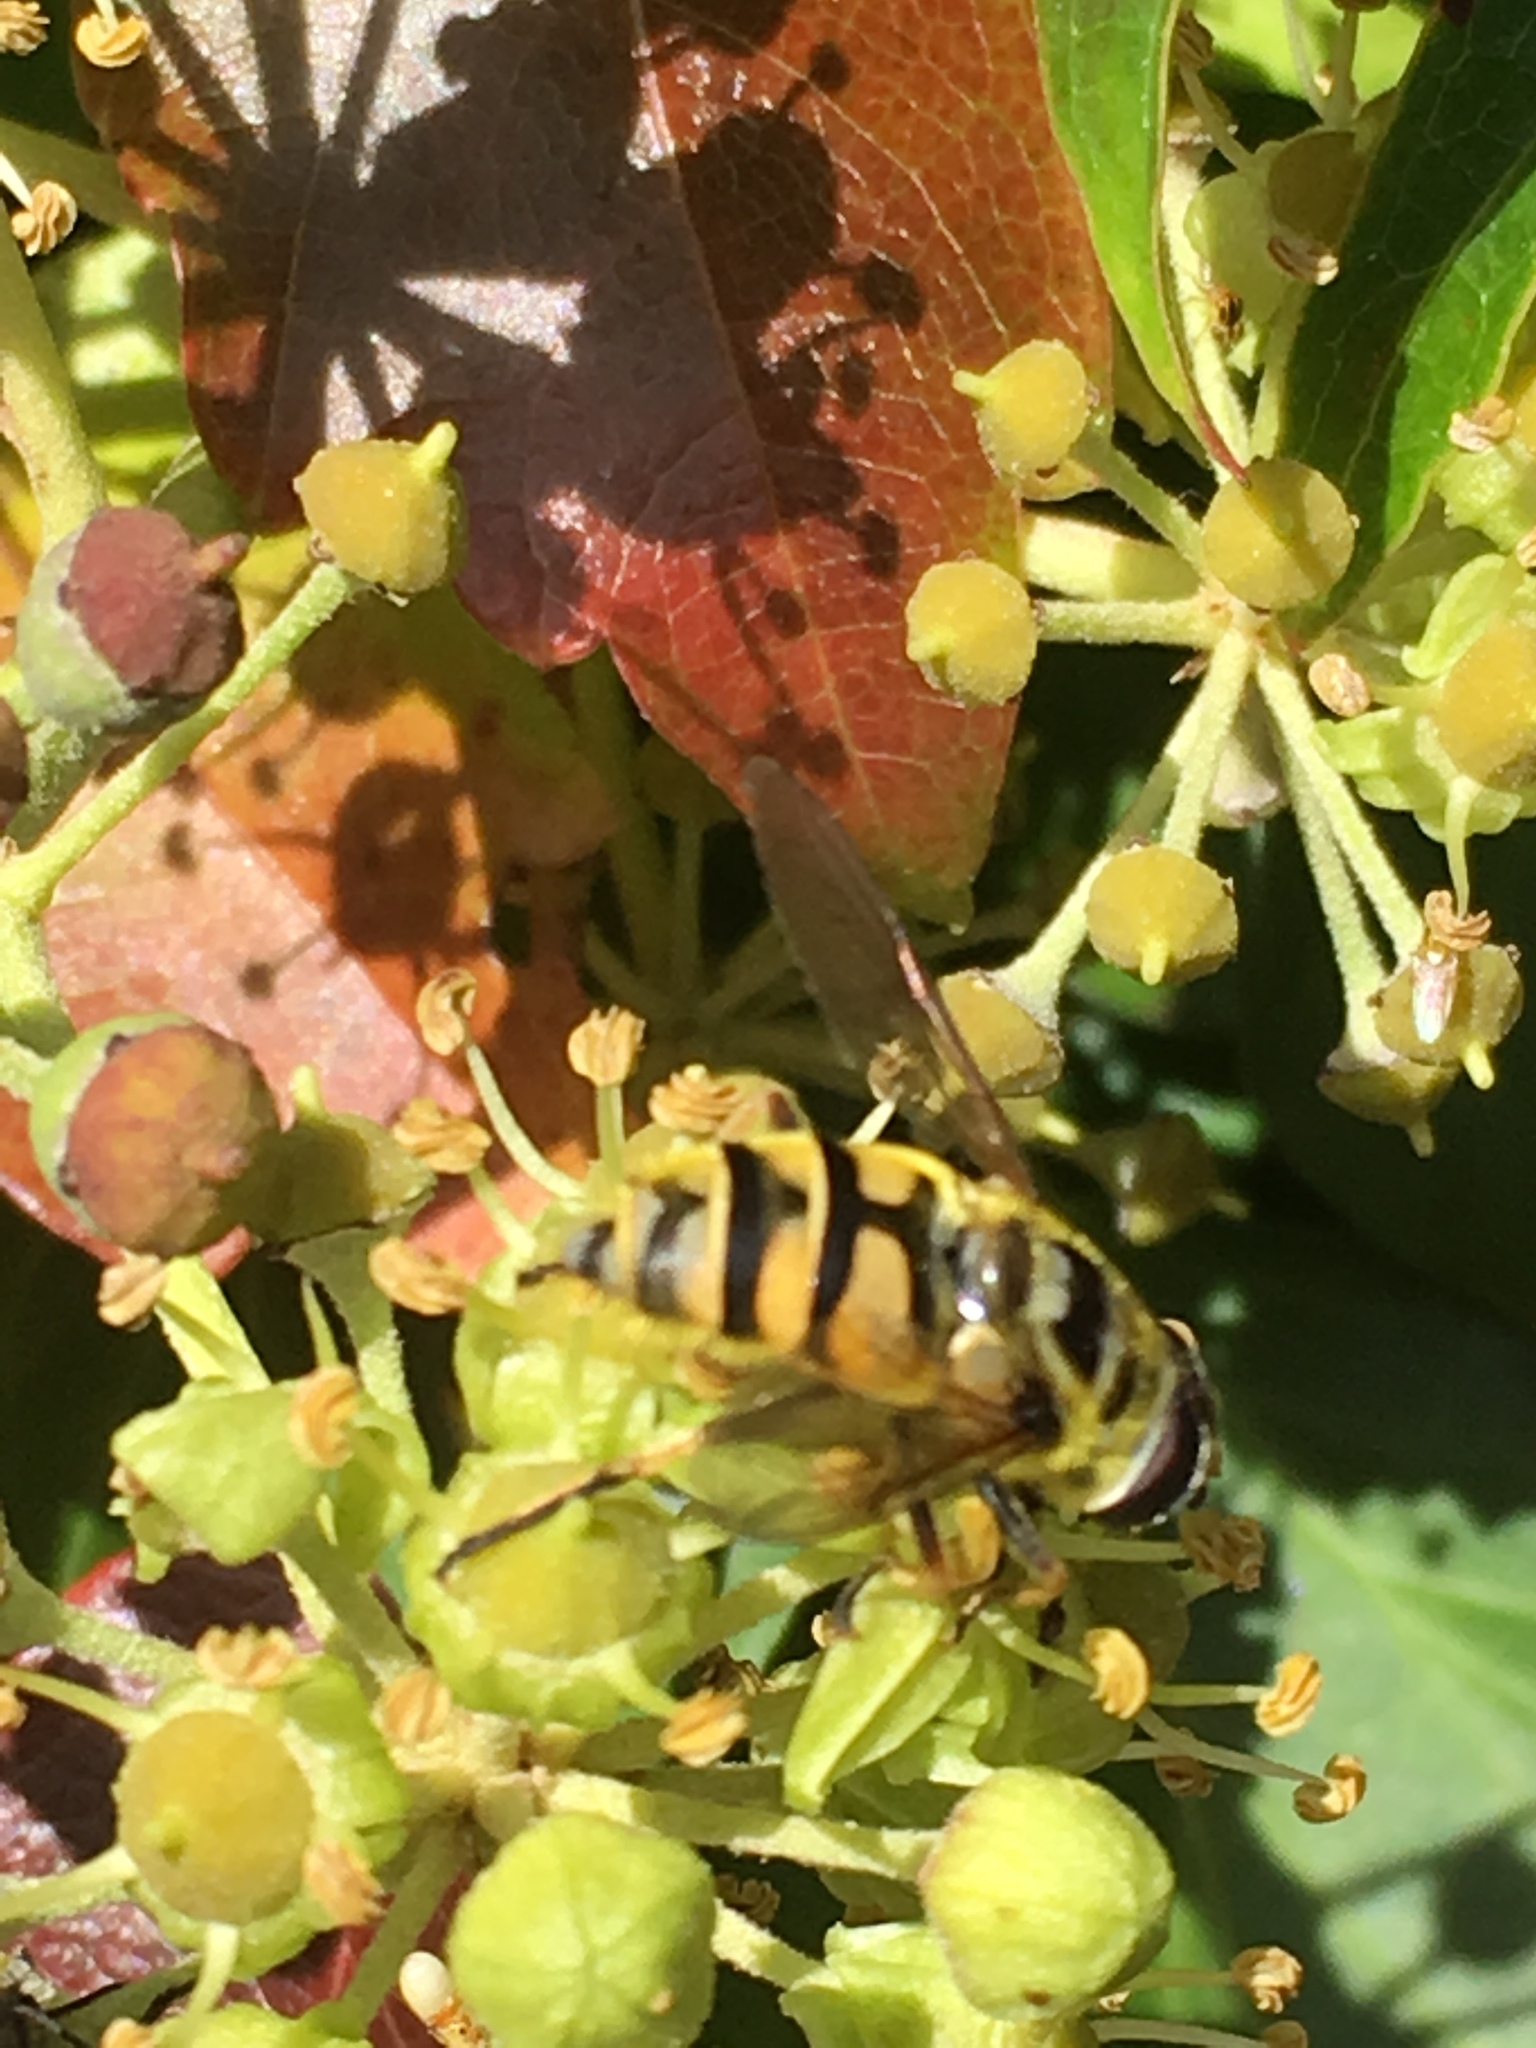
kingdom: Animalia
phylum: Arthropoda
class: Insecta
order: Diptera
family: Syrphidae
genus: Myathropa
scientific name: Myathropa florea
